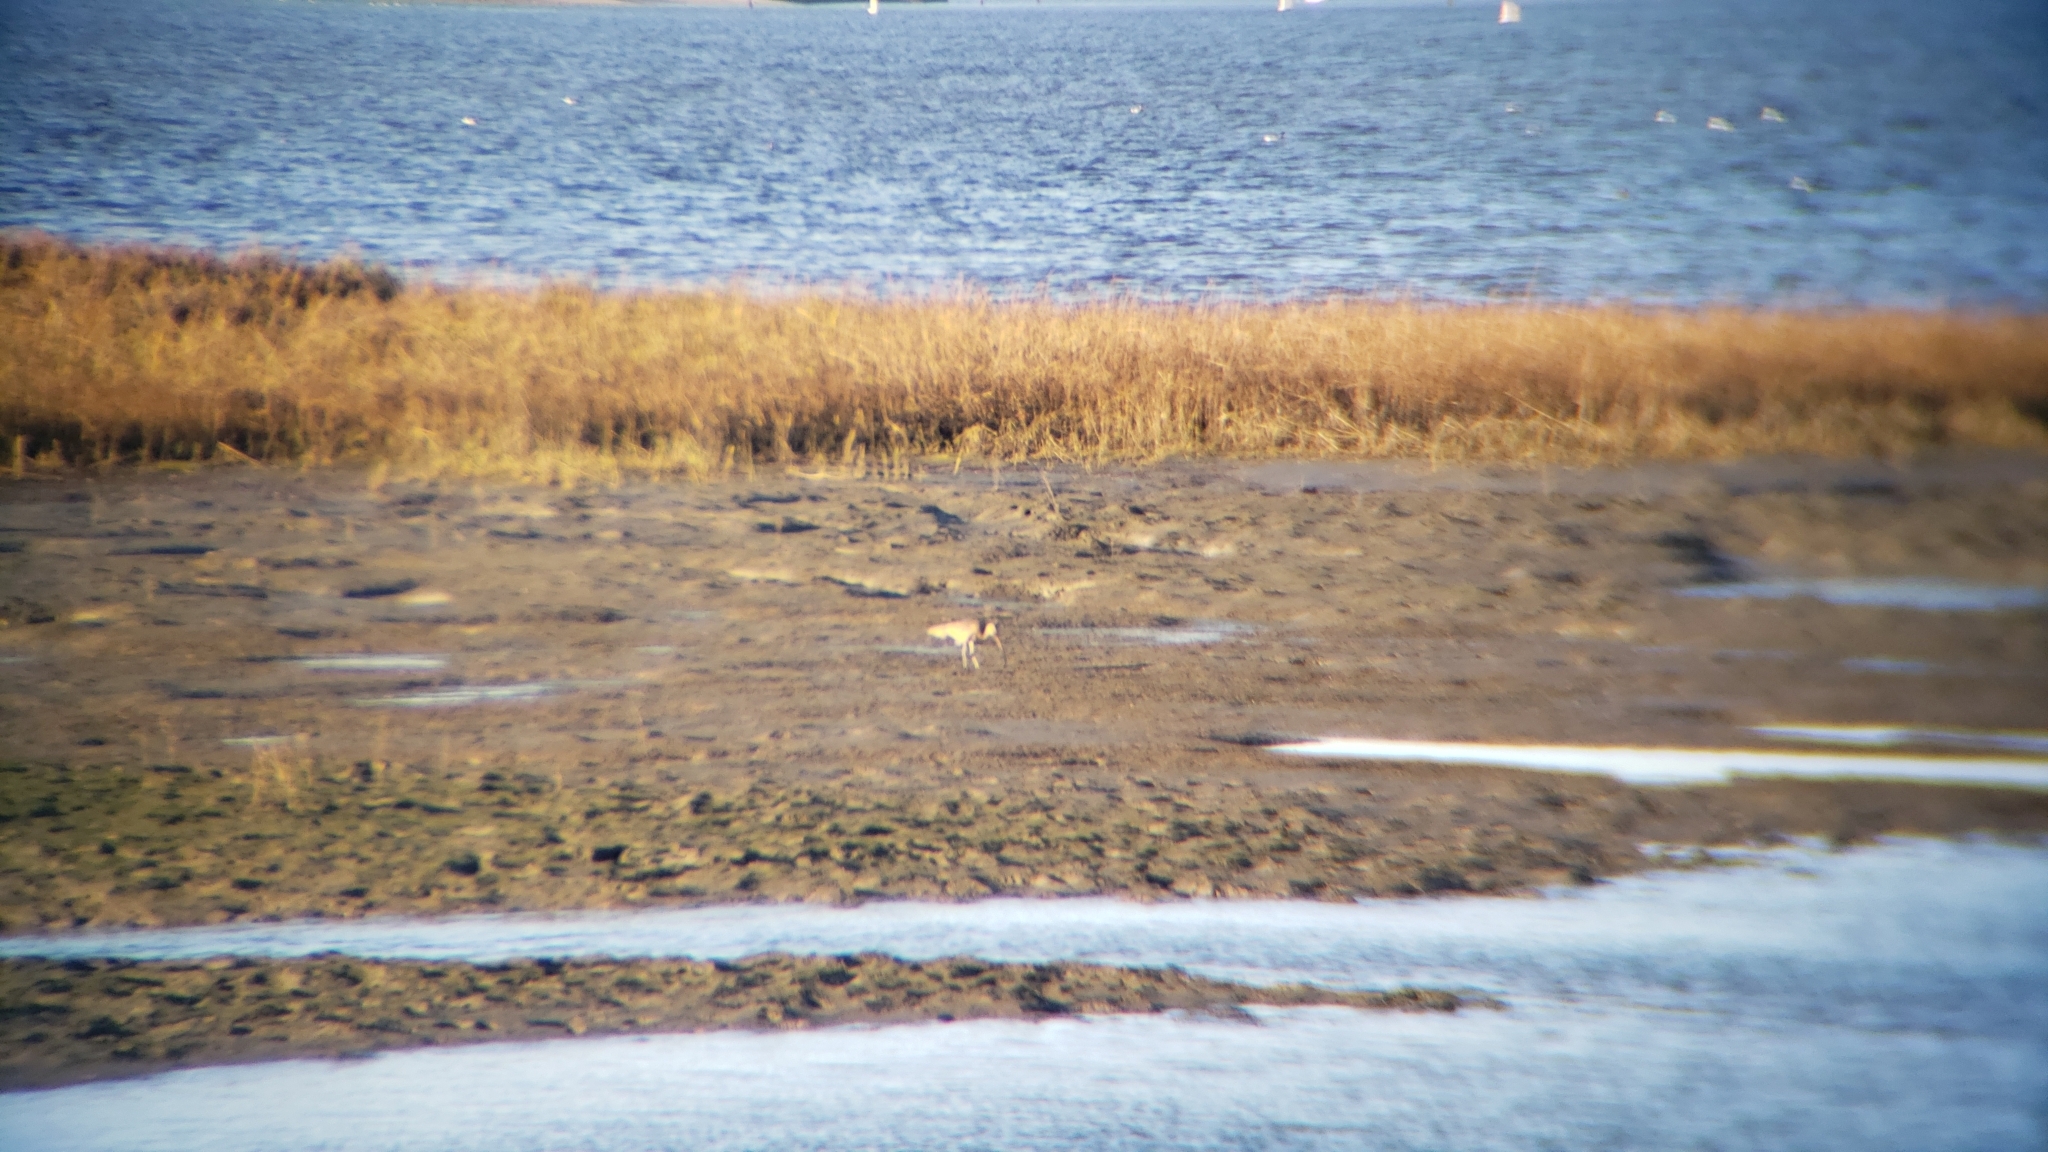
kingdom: Animalia
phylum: Chordata
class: Aves
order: Charadriiformes
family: Scolopacidae
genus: Numenius
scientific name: Numenius americanus
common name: Long-billed curlew
